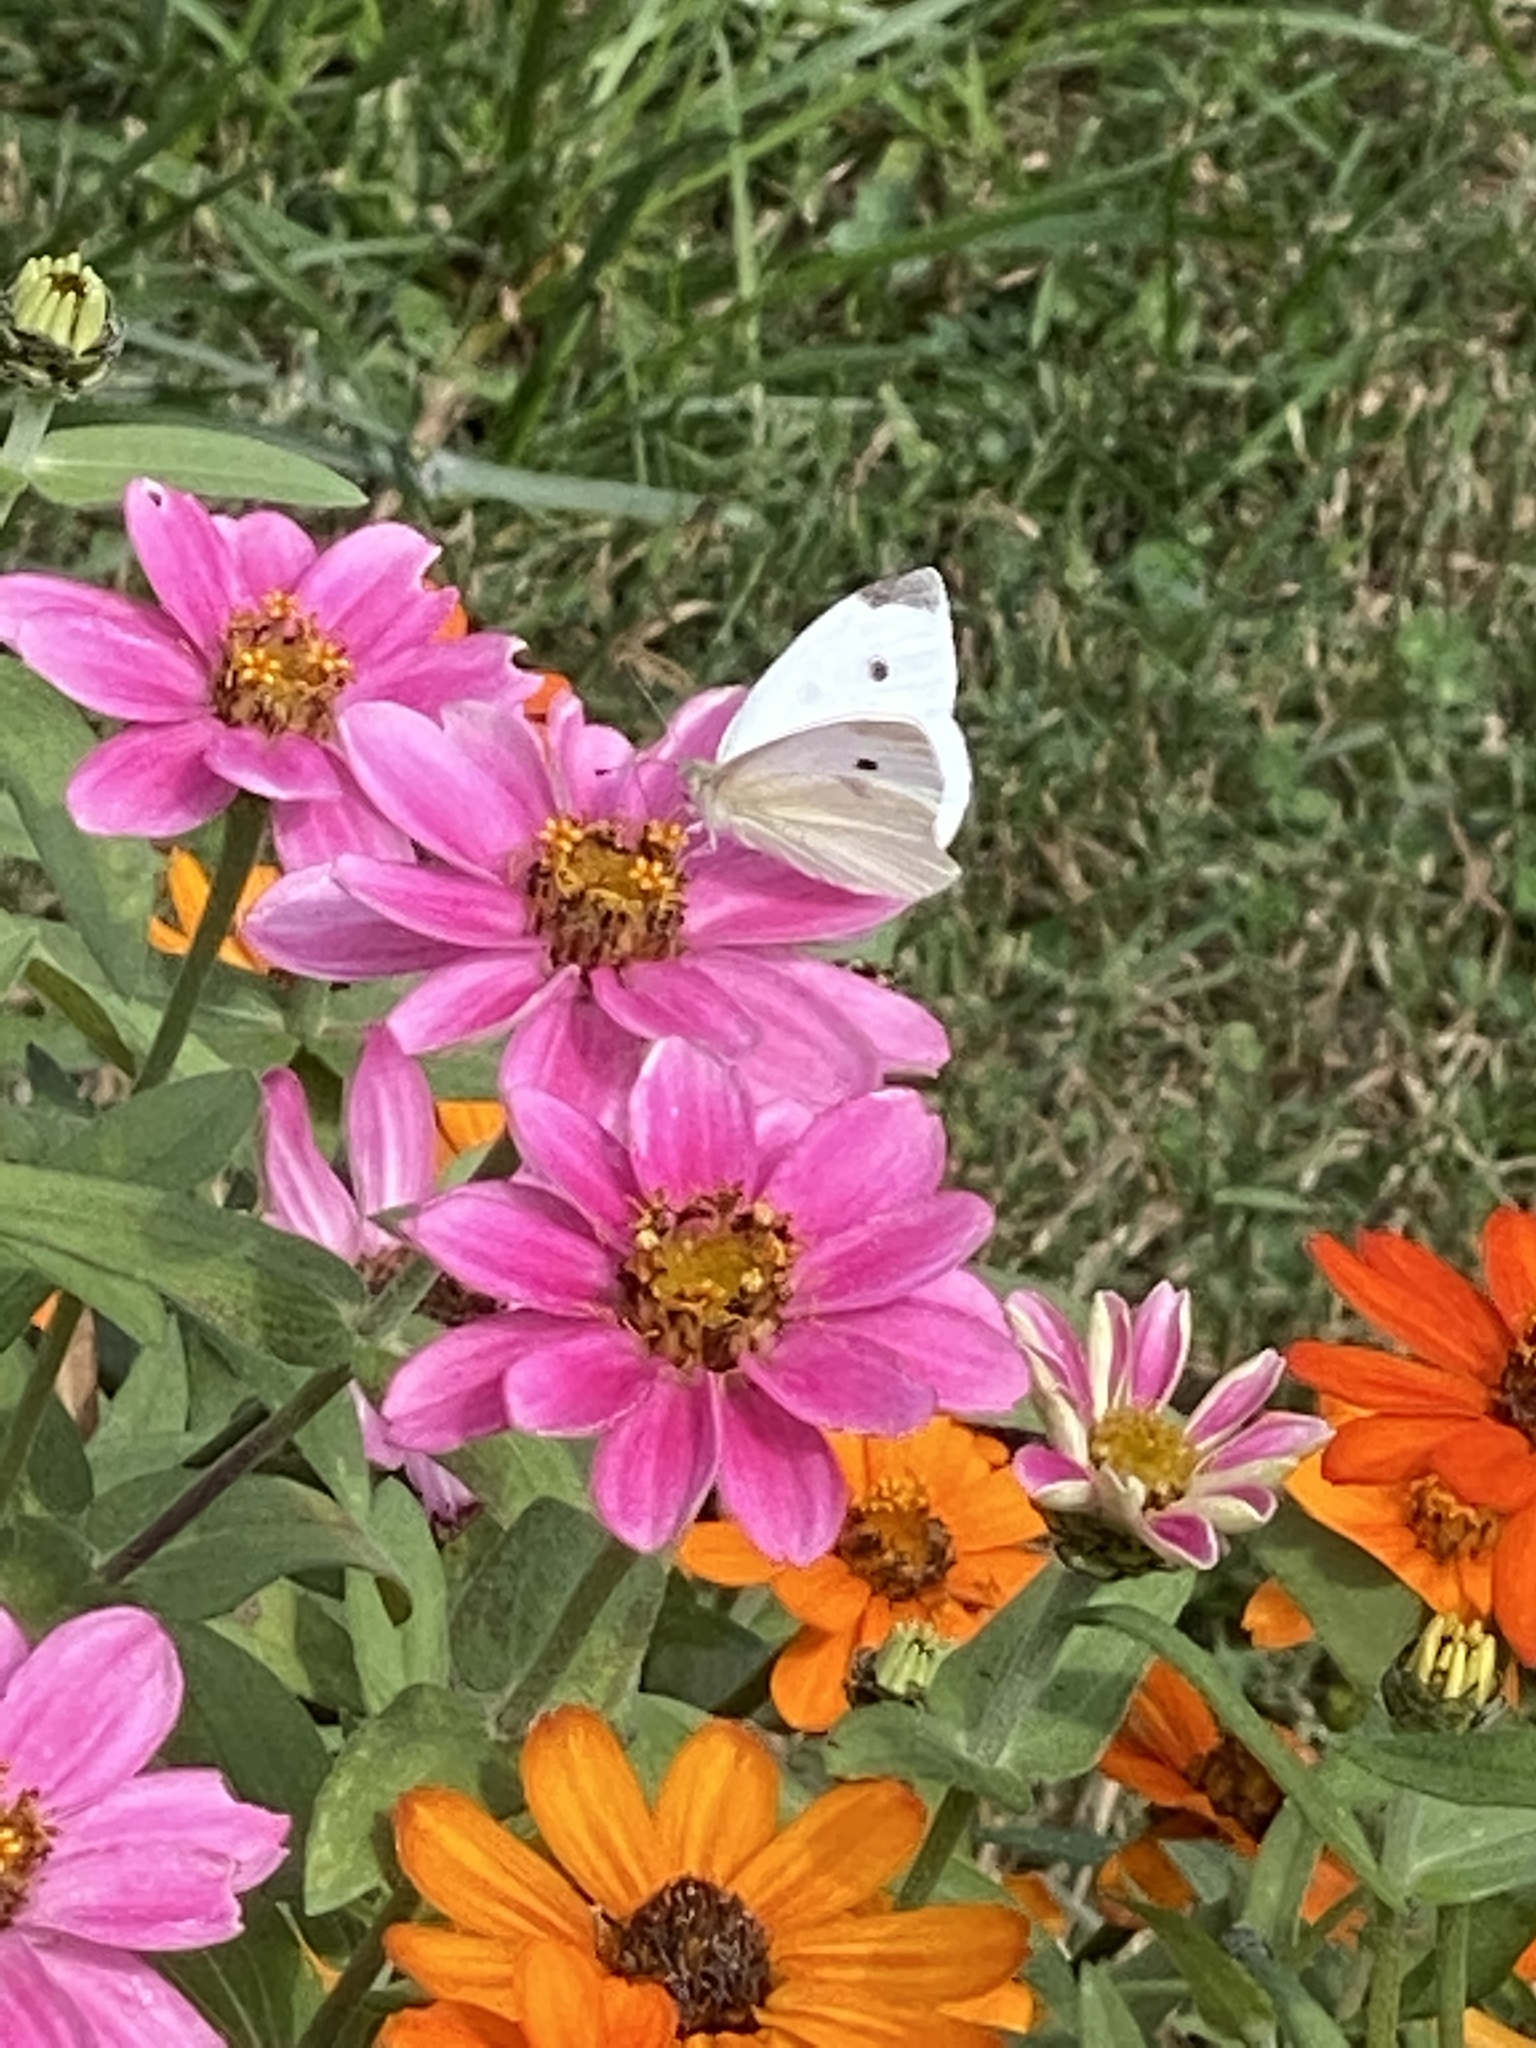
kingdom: Animalia
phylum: Arthropoda
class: Insecta
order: Lepidoptera
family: Pieridae
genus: Pieris
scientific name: Pieris rapae
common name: Small white
